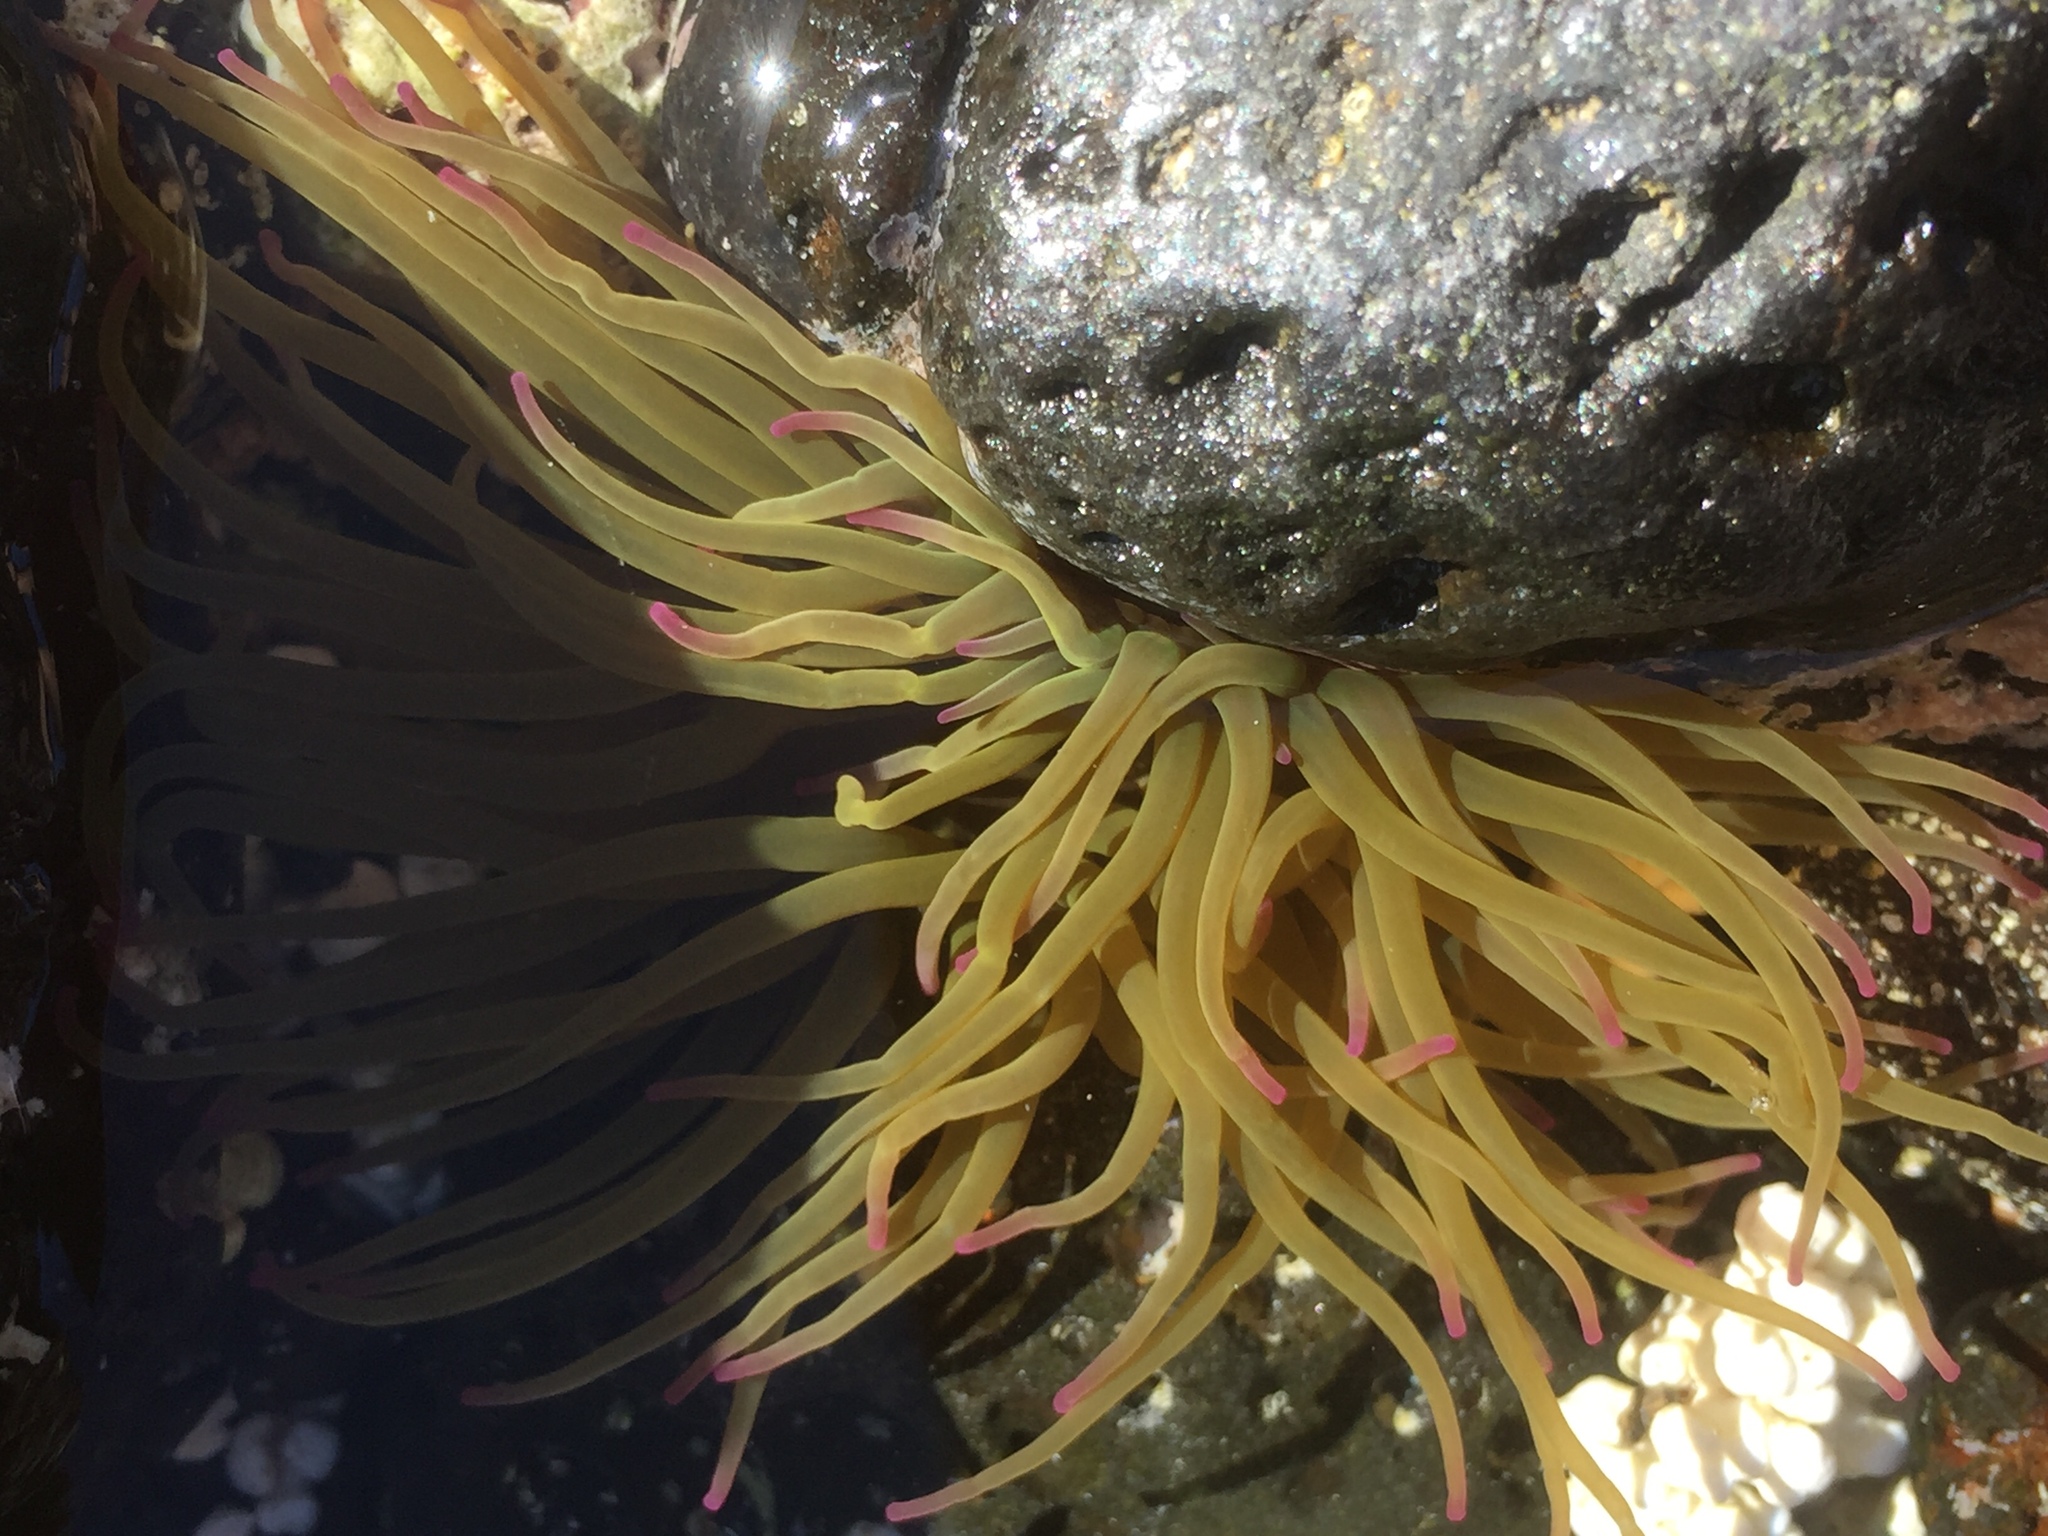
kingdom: Animalia
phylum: Cnidaria
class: Anthozoa
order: Actiniaria
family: Actiniidae
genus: Anemonia
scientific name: Anemonia viridis
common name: Snakelocks anemone
